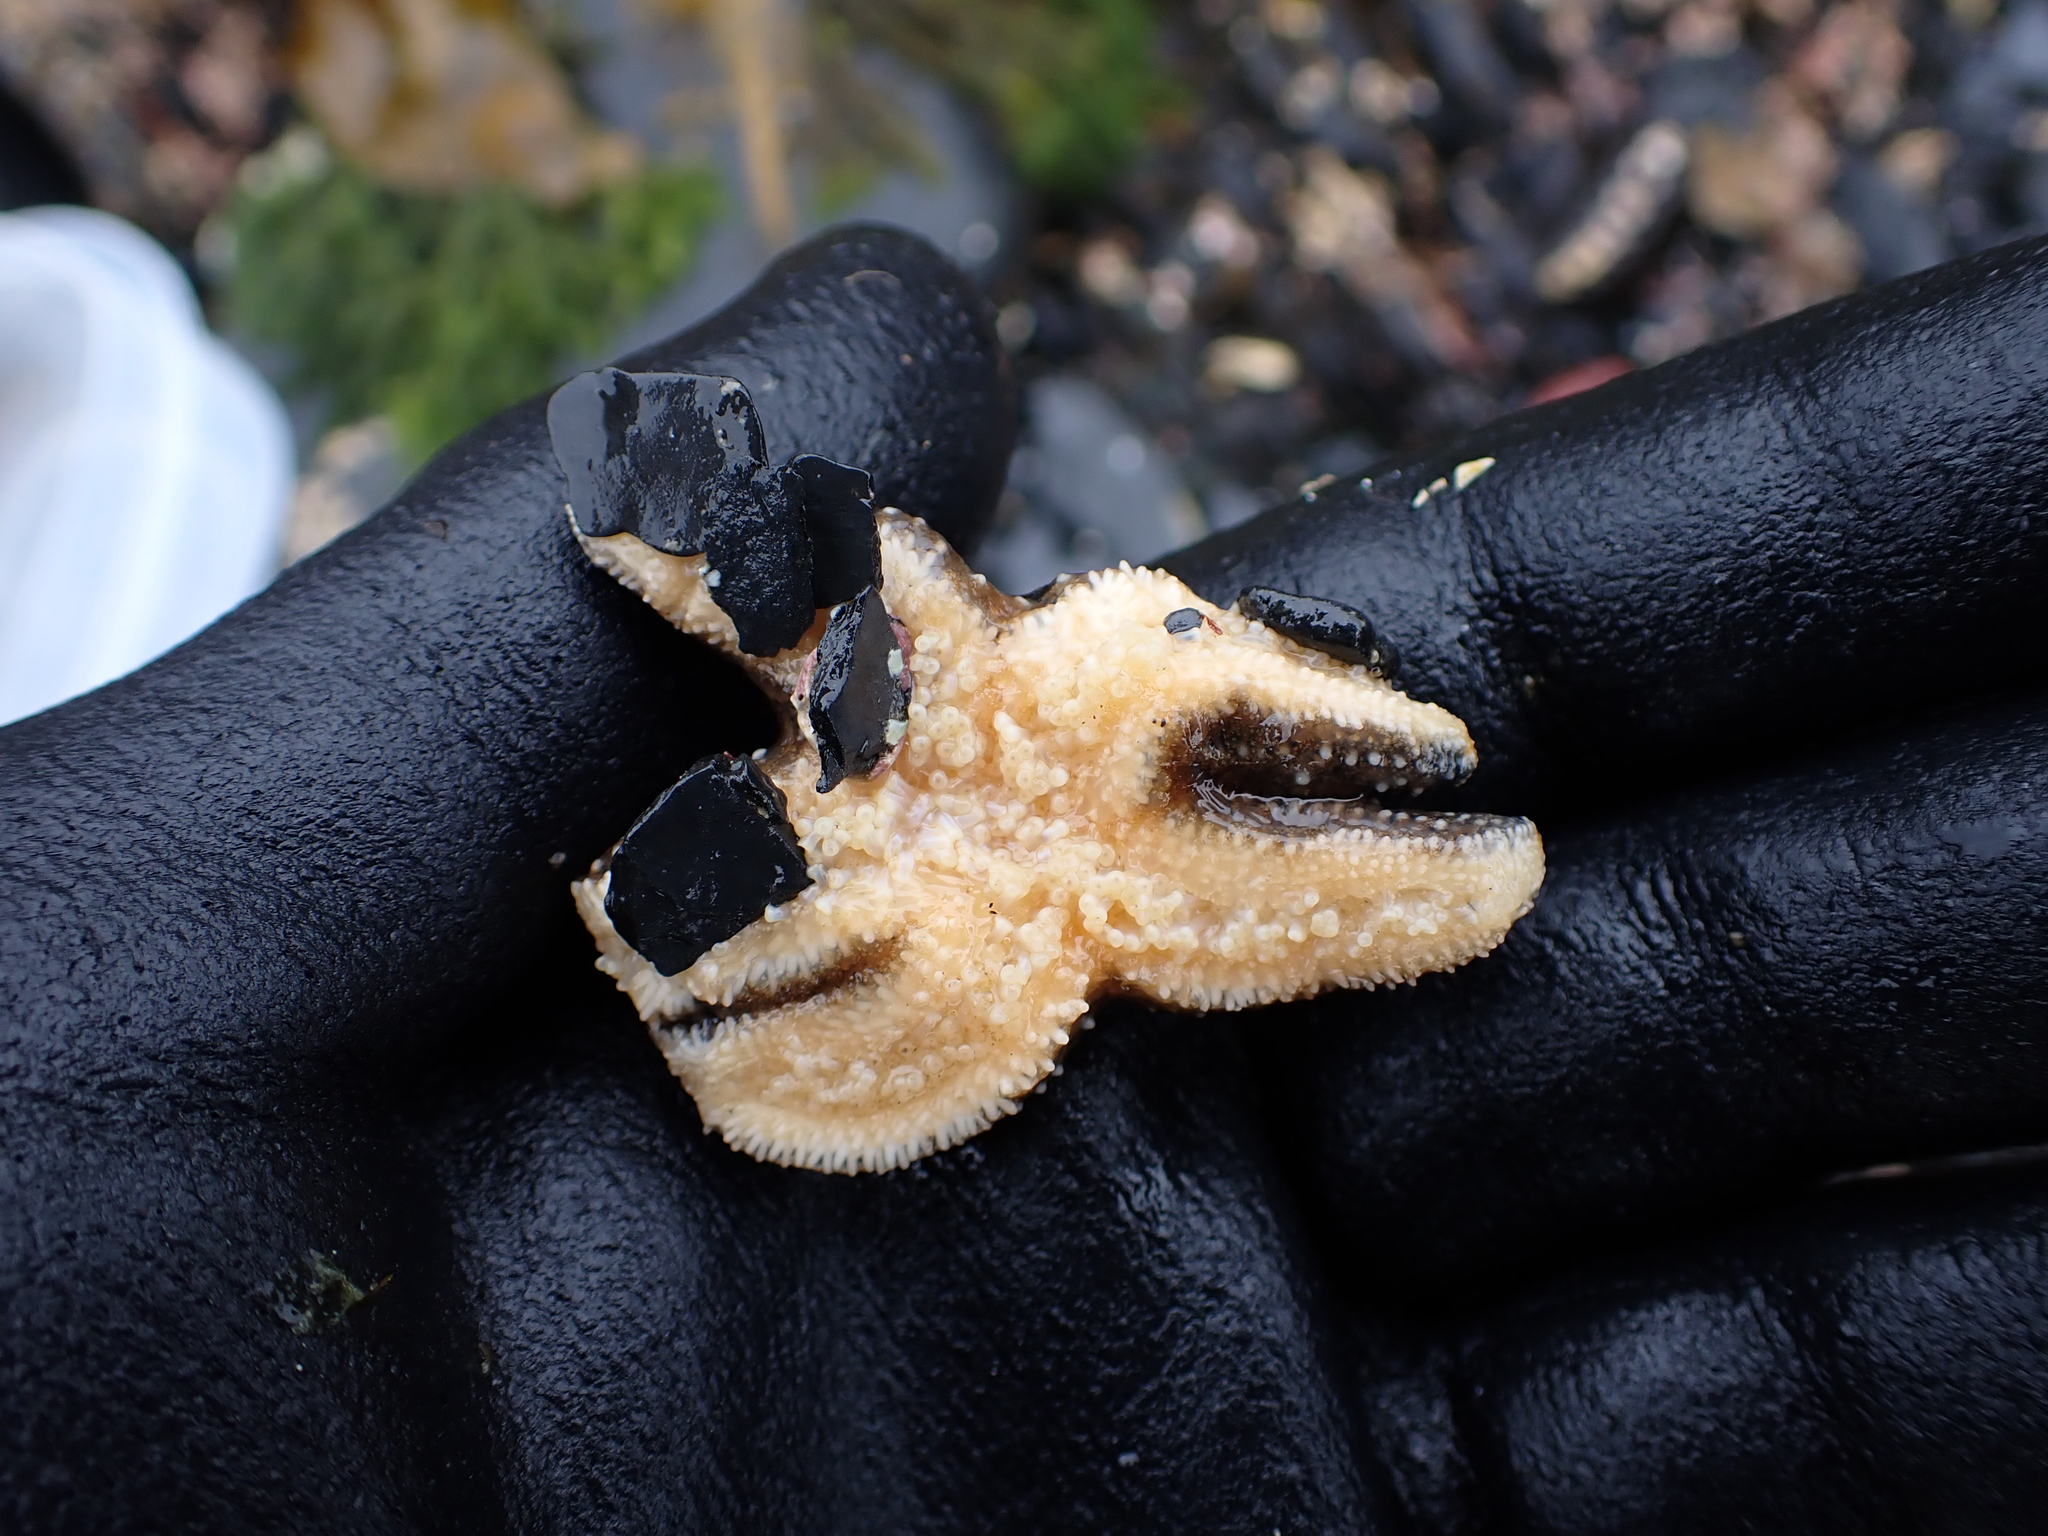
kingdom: Animalia
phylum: Echinodermata
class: Asteroidea
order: Forcipulatida
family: Asteriidae
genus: Pisaster
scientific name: Pisaster ochraceus
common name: Ochre stars
